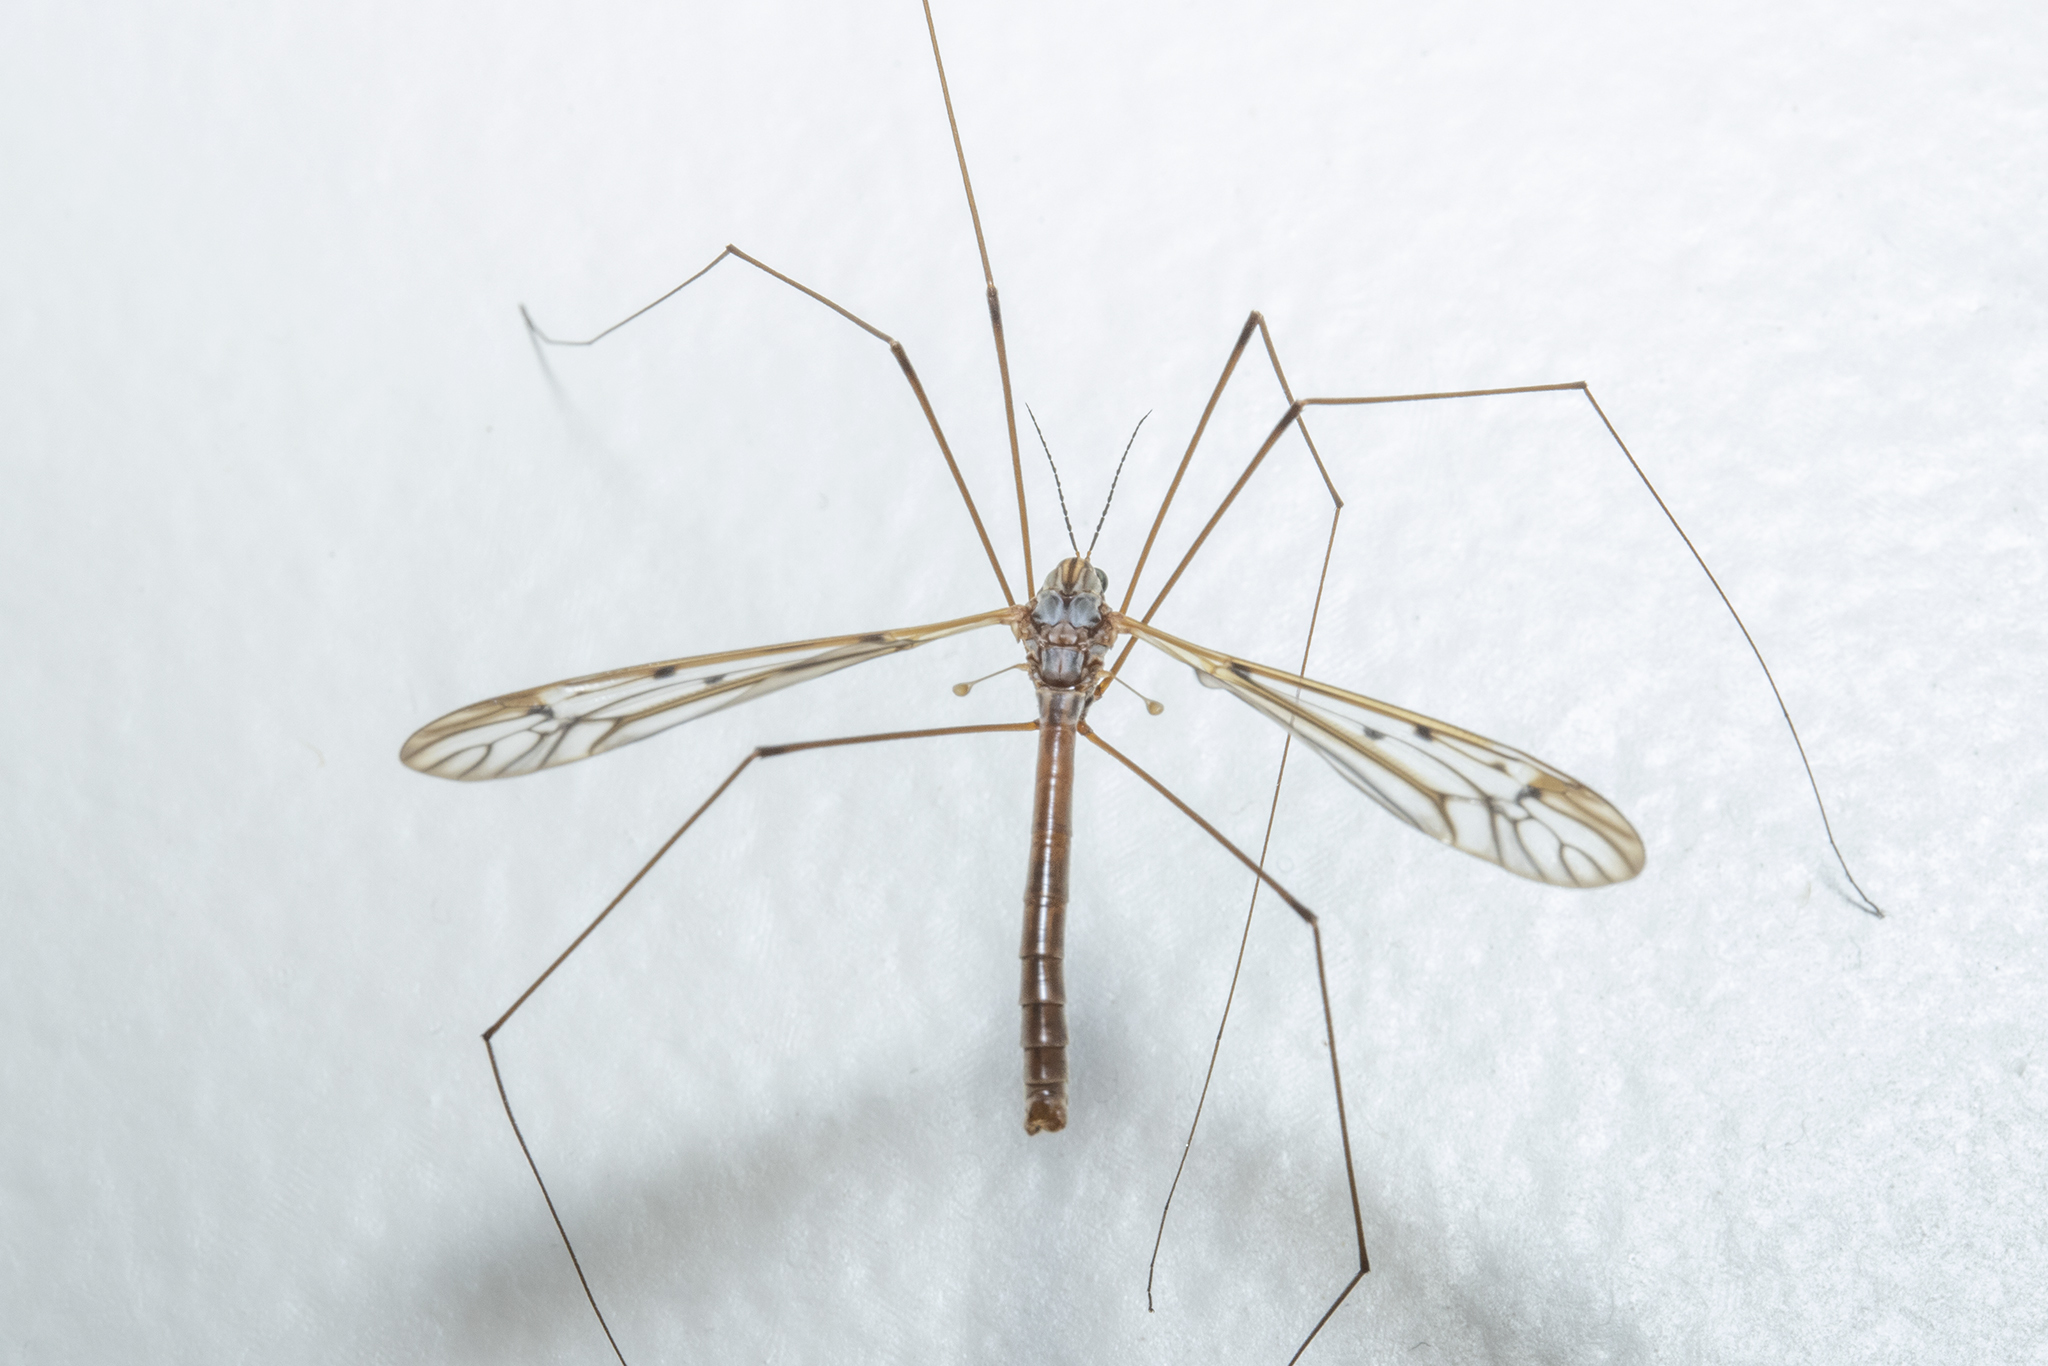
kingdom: Animalia
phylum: Arthropoda
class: Insecta
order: Diptera
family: Tipulidae
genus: Zelandotipula
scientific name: Zelandotipula novarae
